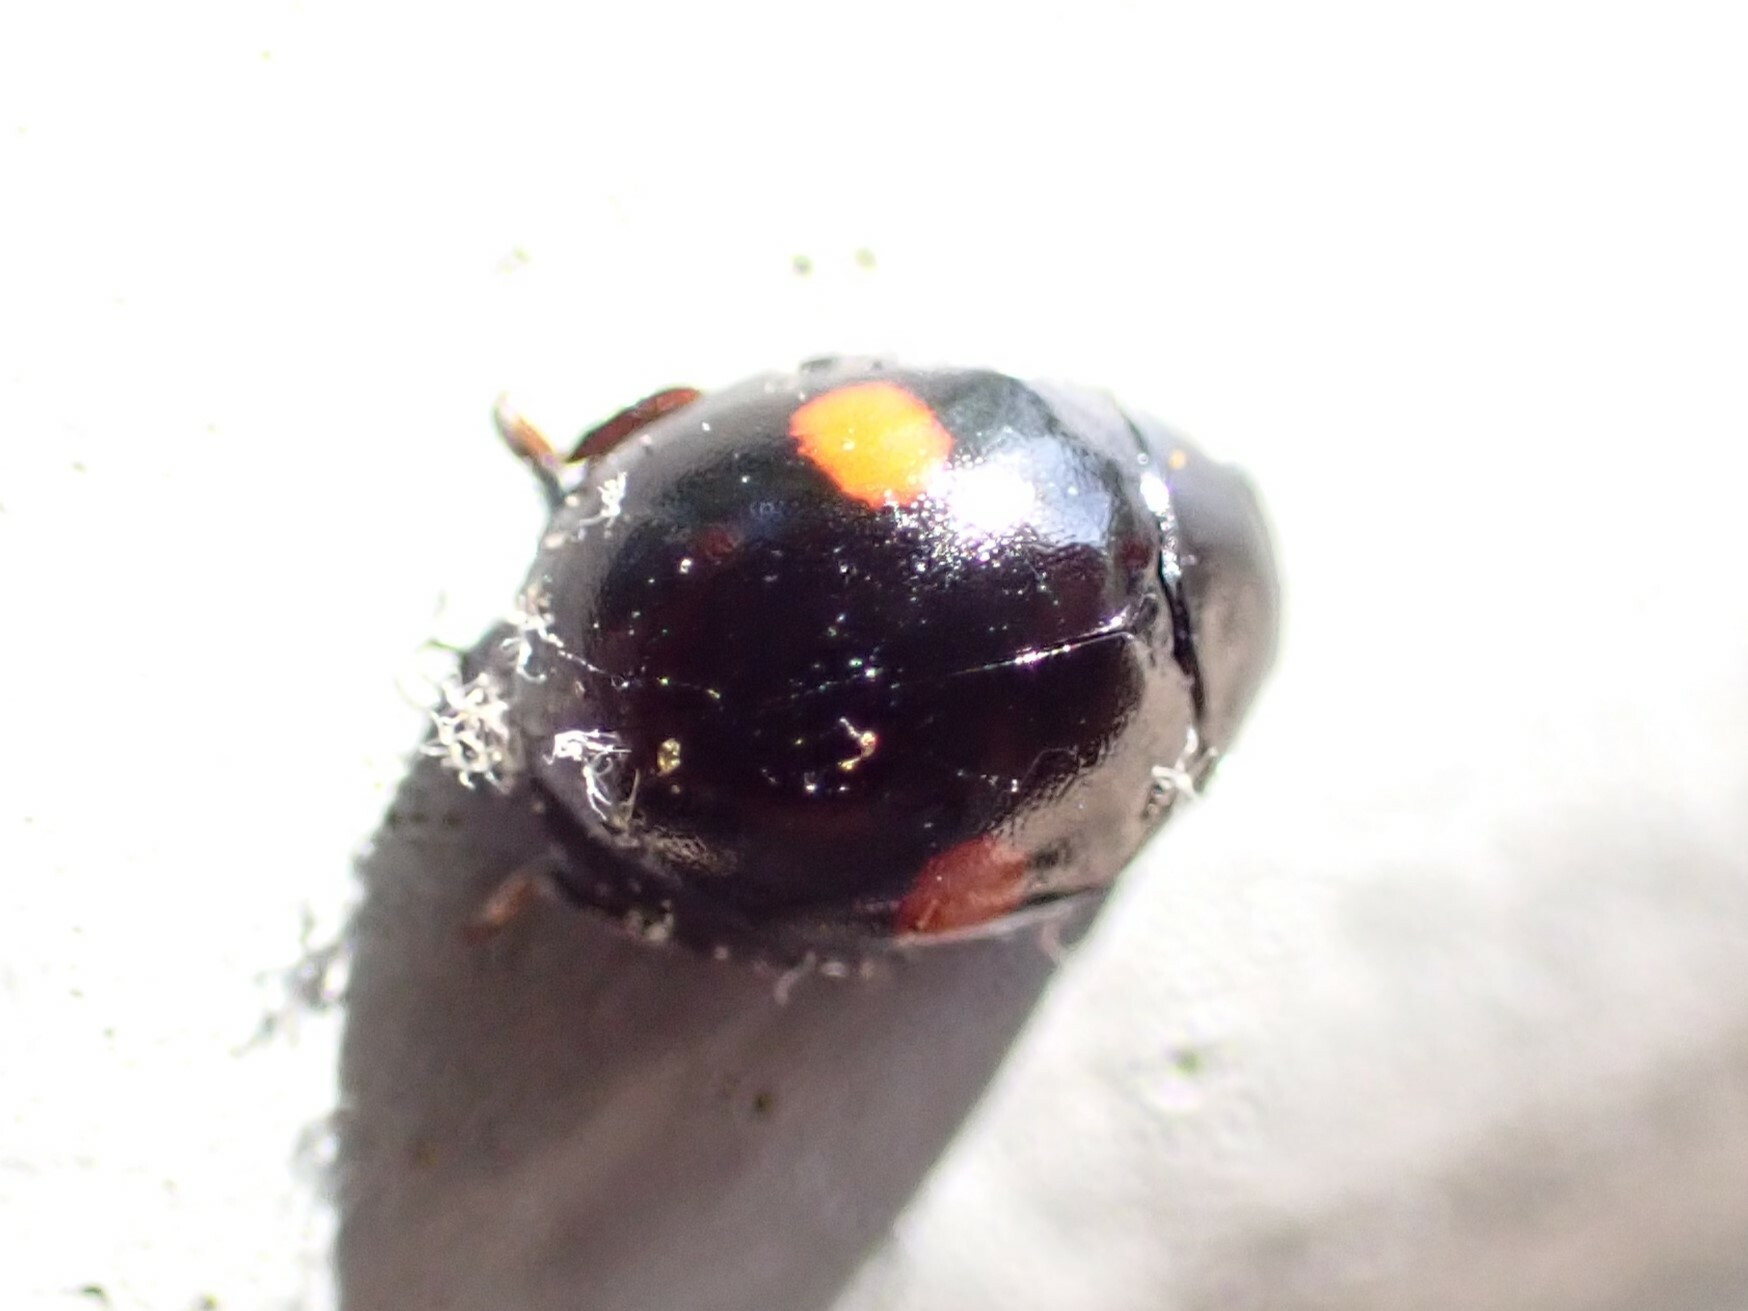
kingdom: Animalia
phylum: Arthropoda
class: Insecta
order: Coleoptera
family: Coccinellidae
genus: Chilocorus
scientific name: Chilocorus stigma
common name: Twicestabbed lady beetle
